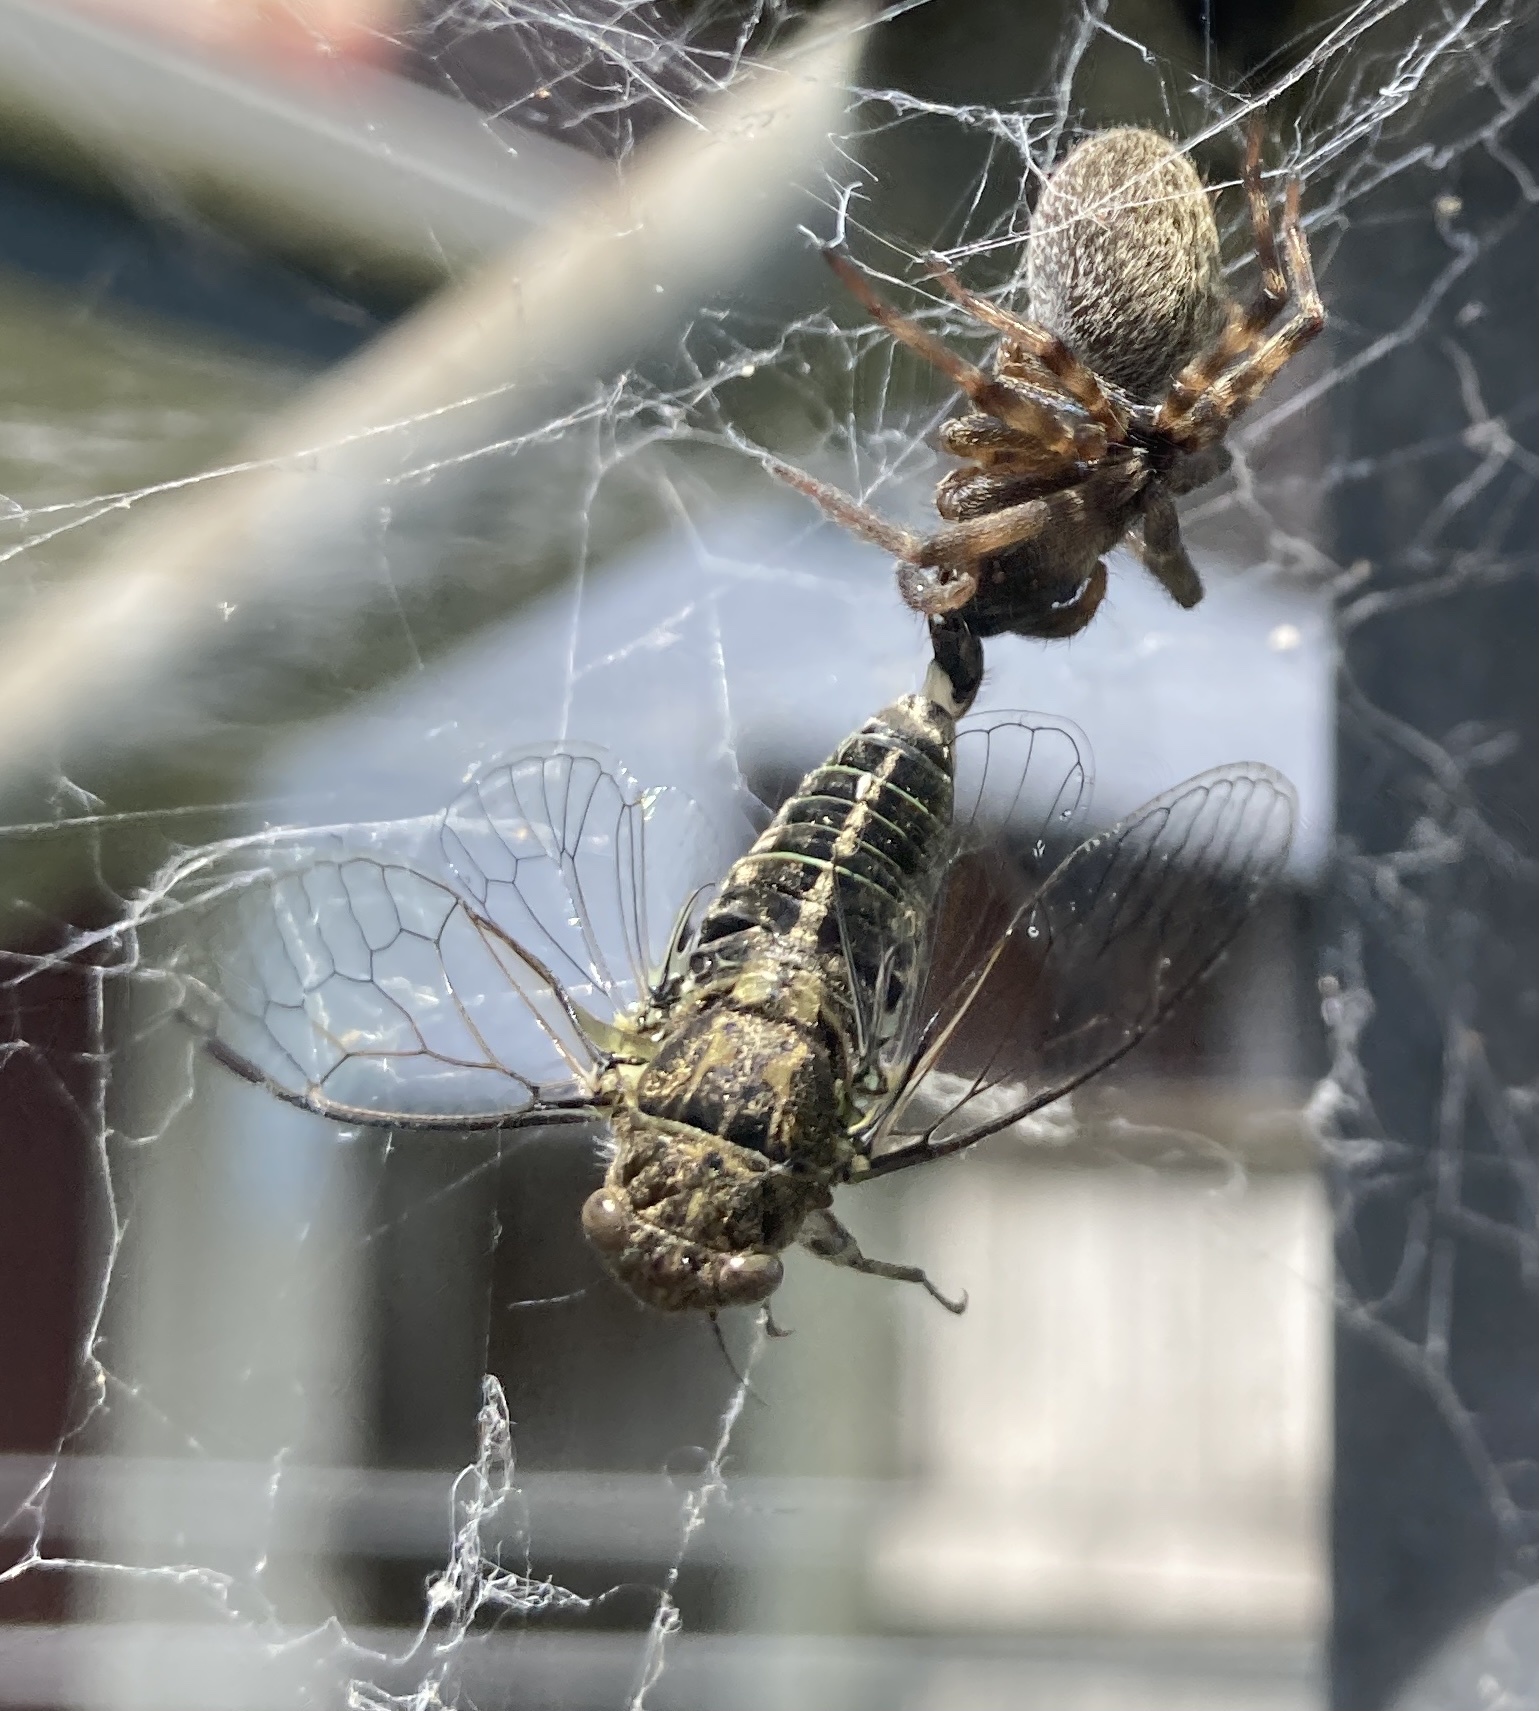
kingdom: Animalia
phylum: Arthropoda
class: Insecta
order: Hemiptera
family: Cicadidae
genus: Notopsalta
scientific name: Notopsalta sericea
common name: Clay bank cicada
